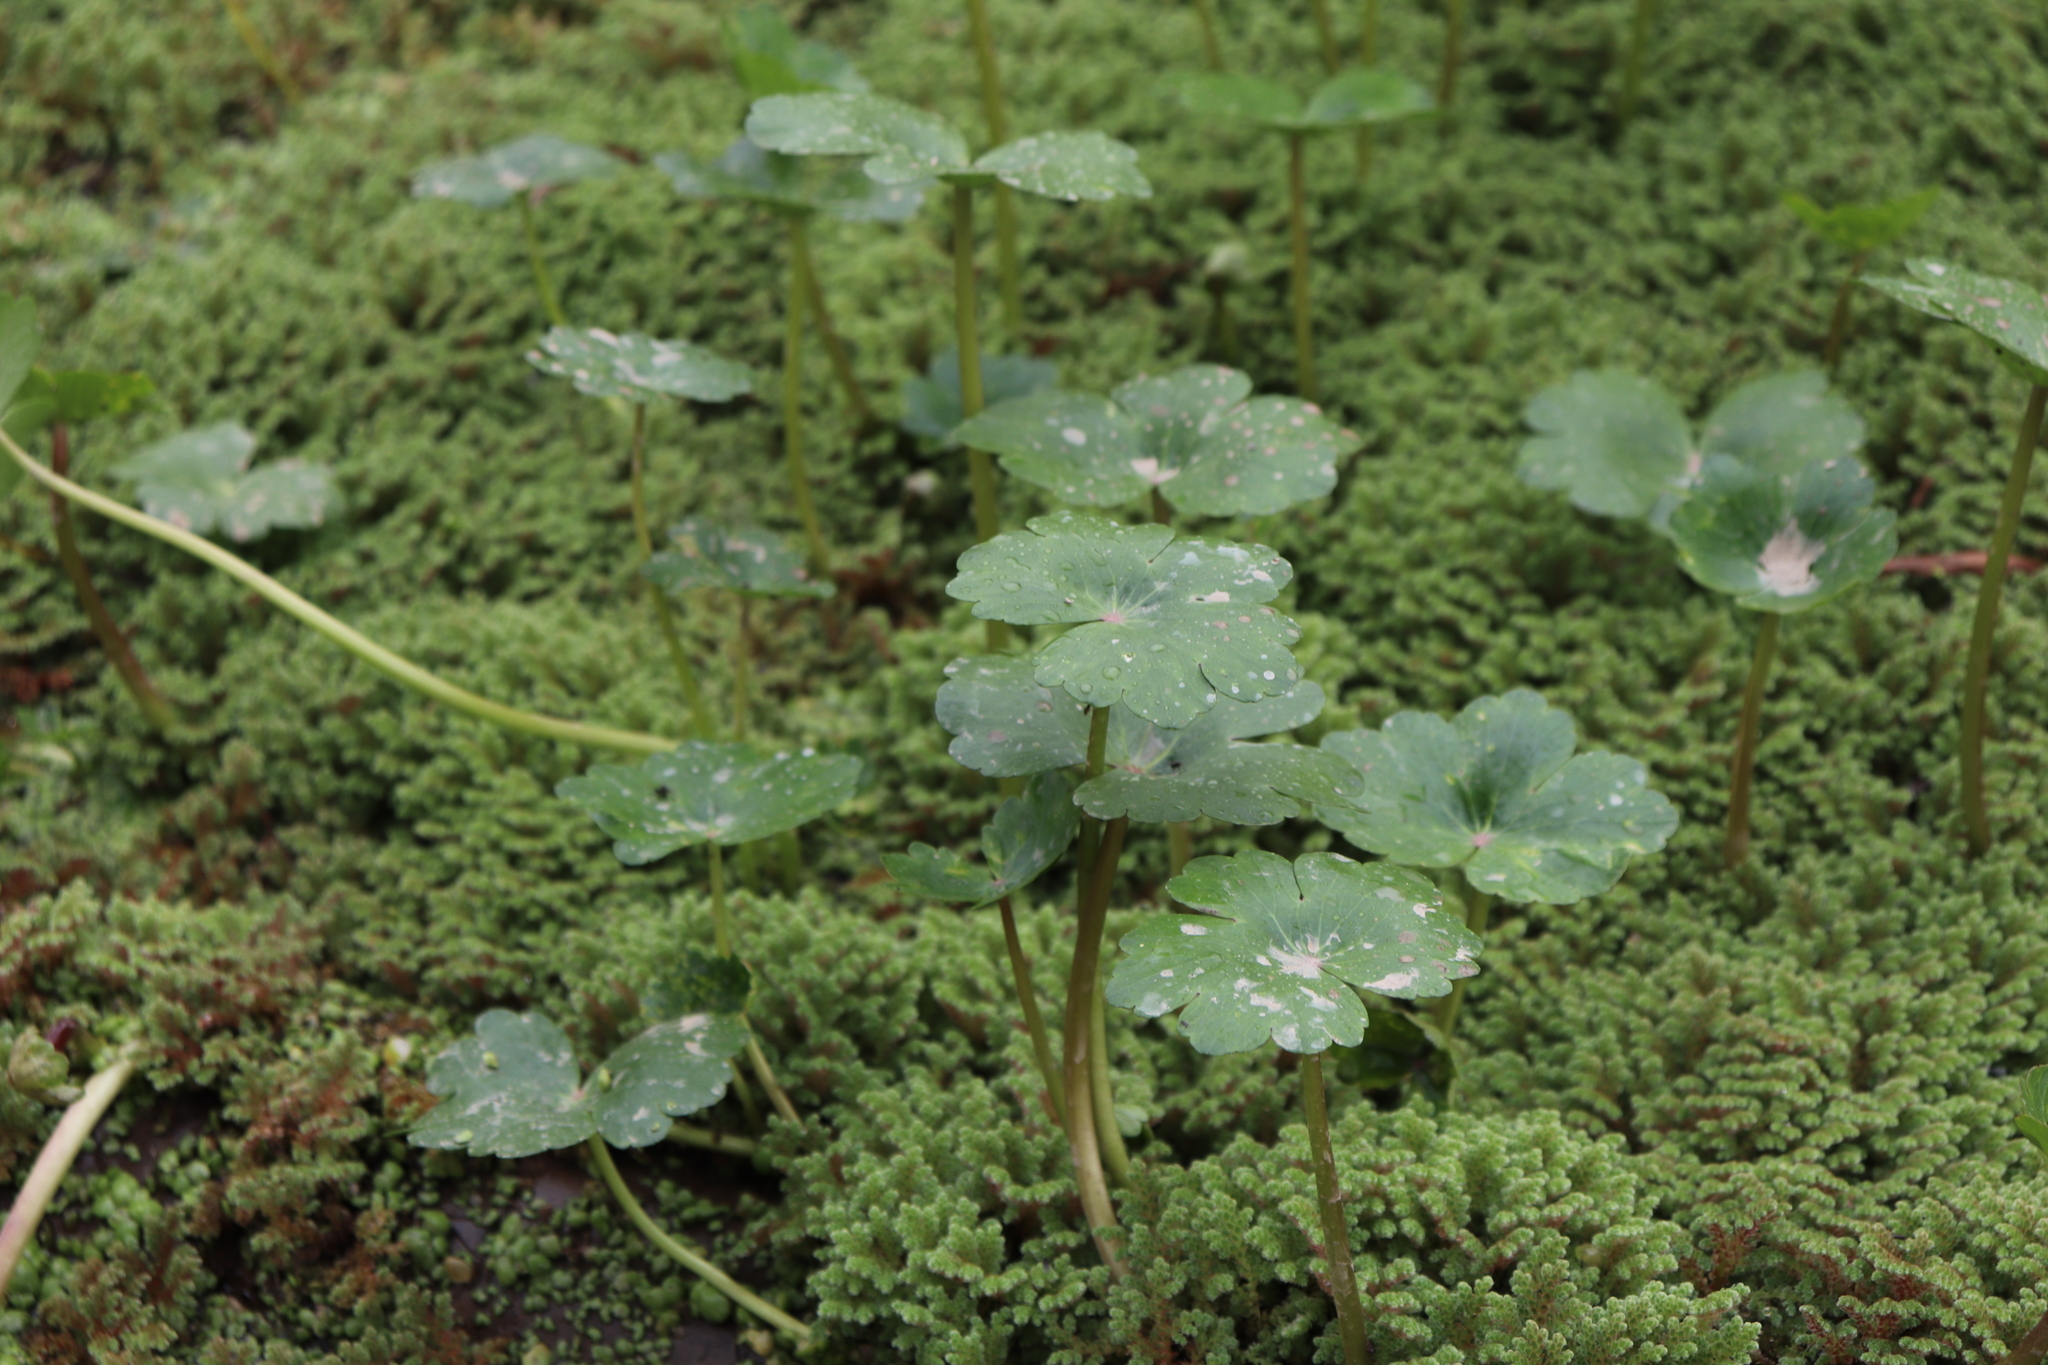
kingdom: Plantae
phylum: Tracheophyta
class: Magnoliopsida
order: Apiales
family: Araliaceae
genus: Hydrocotyle
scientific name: Hydrocotyle ranunculoides
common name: Floating pennywort
